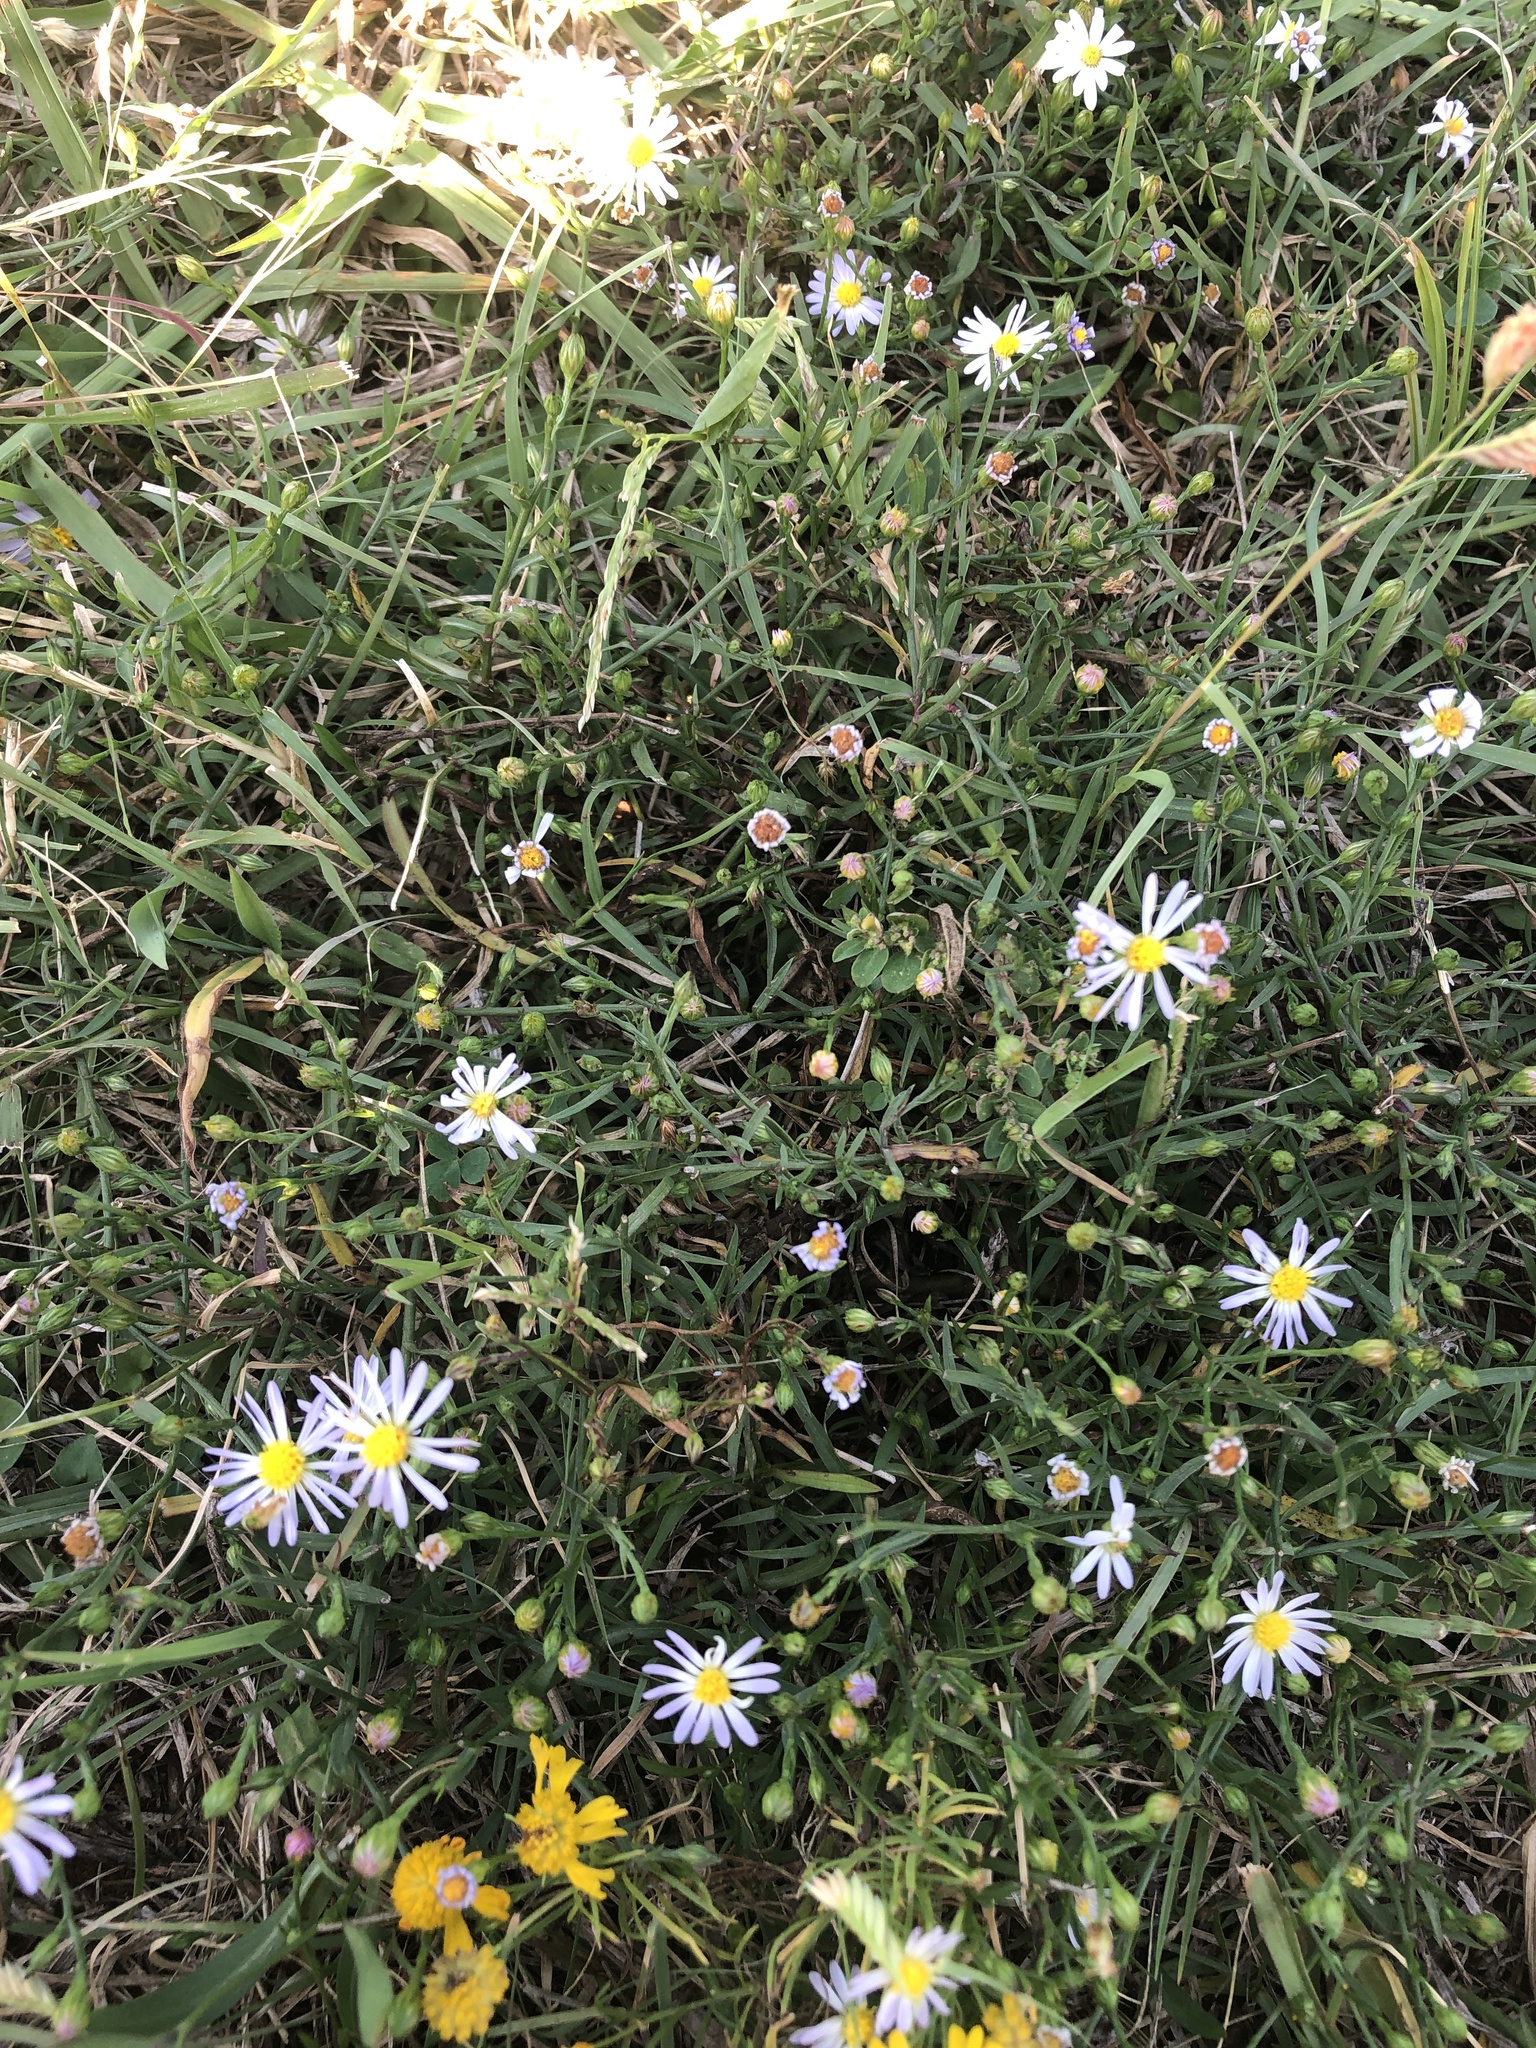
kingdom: Plantae
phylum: Tracheophyta
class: Magnoliopsida
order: Asterales
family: Asteraceae
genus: Symphyotrichum
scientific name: Symphyotrichum divaricatum
